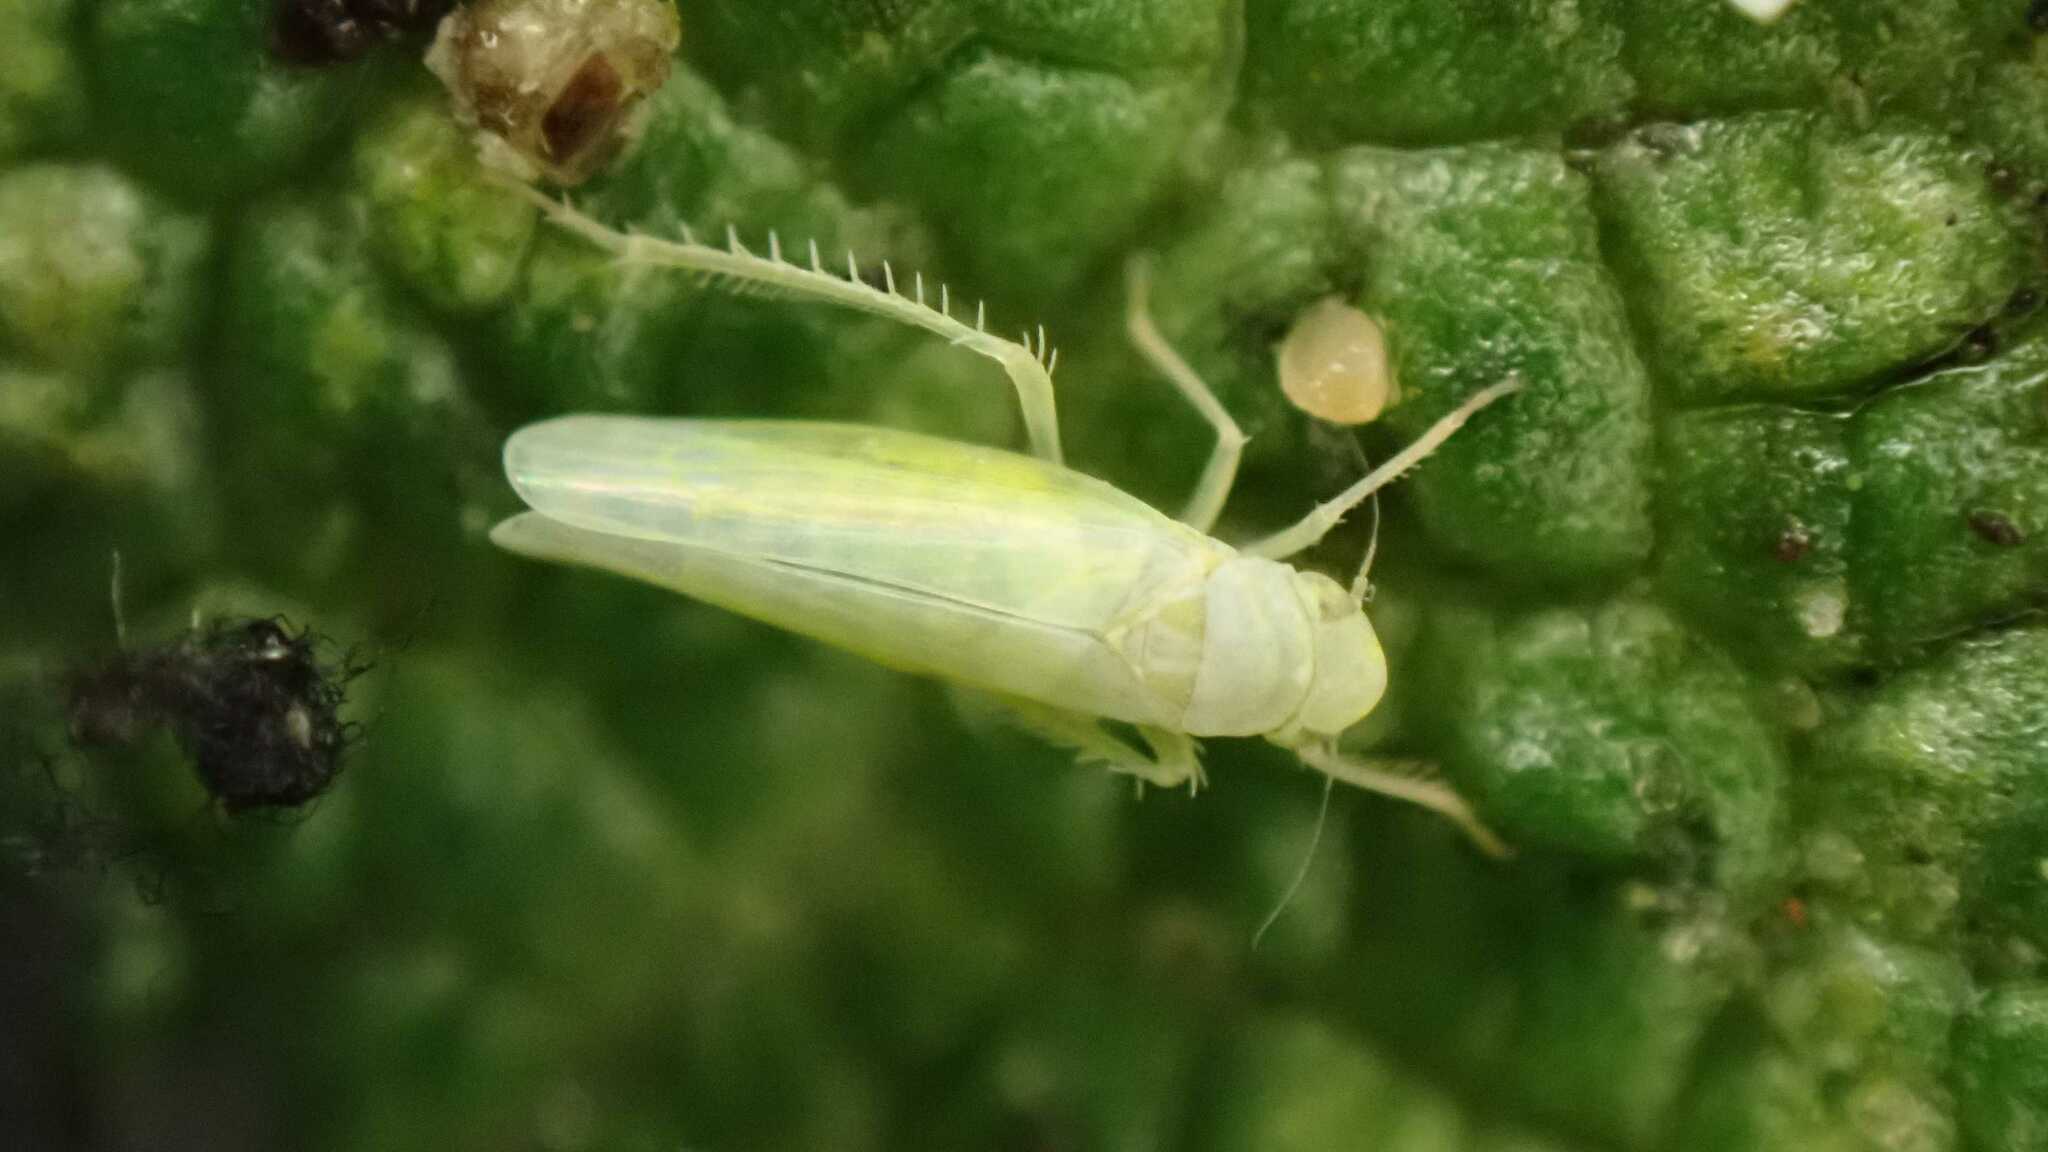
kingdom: Animalia
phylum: Arthropoda
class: Insecta
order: Hemiptera
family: Cicadellidae
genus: Emelyanoviana
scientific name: Emelyanoviana mollicula
